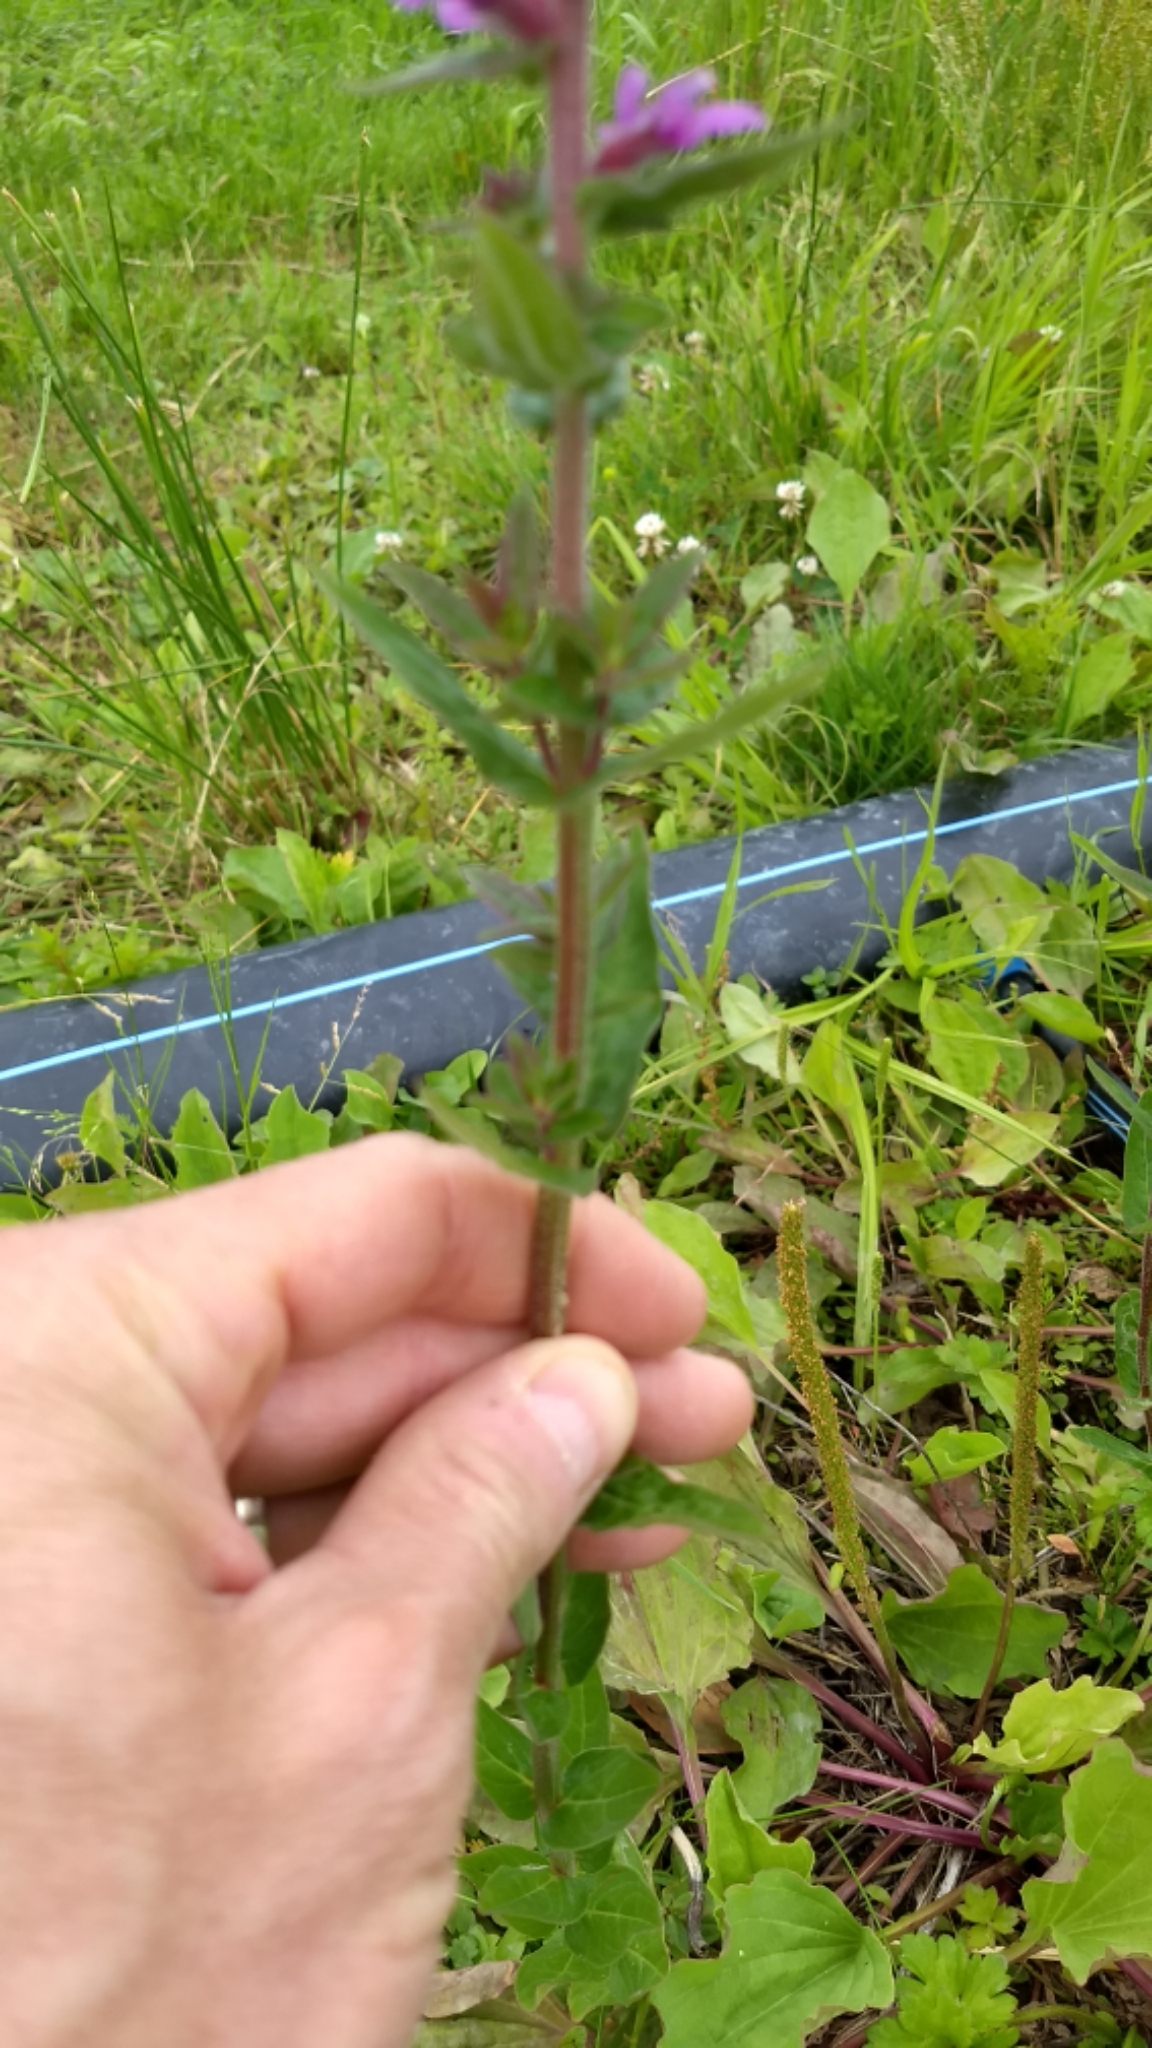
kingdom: Plantae
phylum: Tracheophyta
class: Magnoliopsida
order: Myrtales
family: Lythraceae
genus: Lythrum
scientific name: Lythrum salicaria
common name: Purple loosestrife
